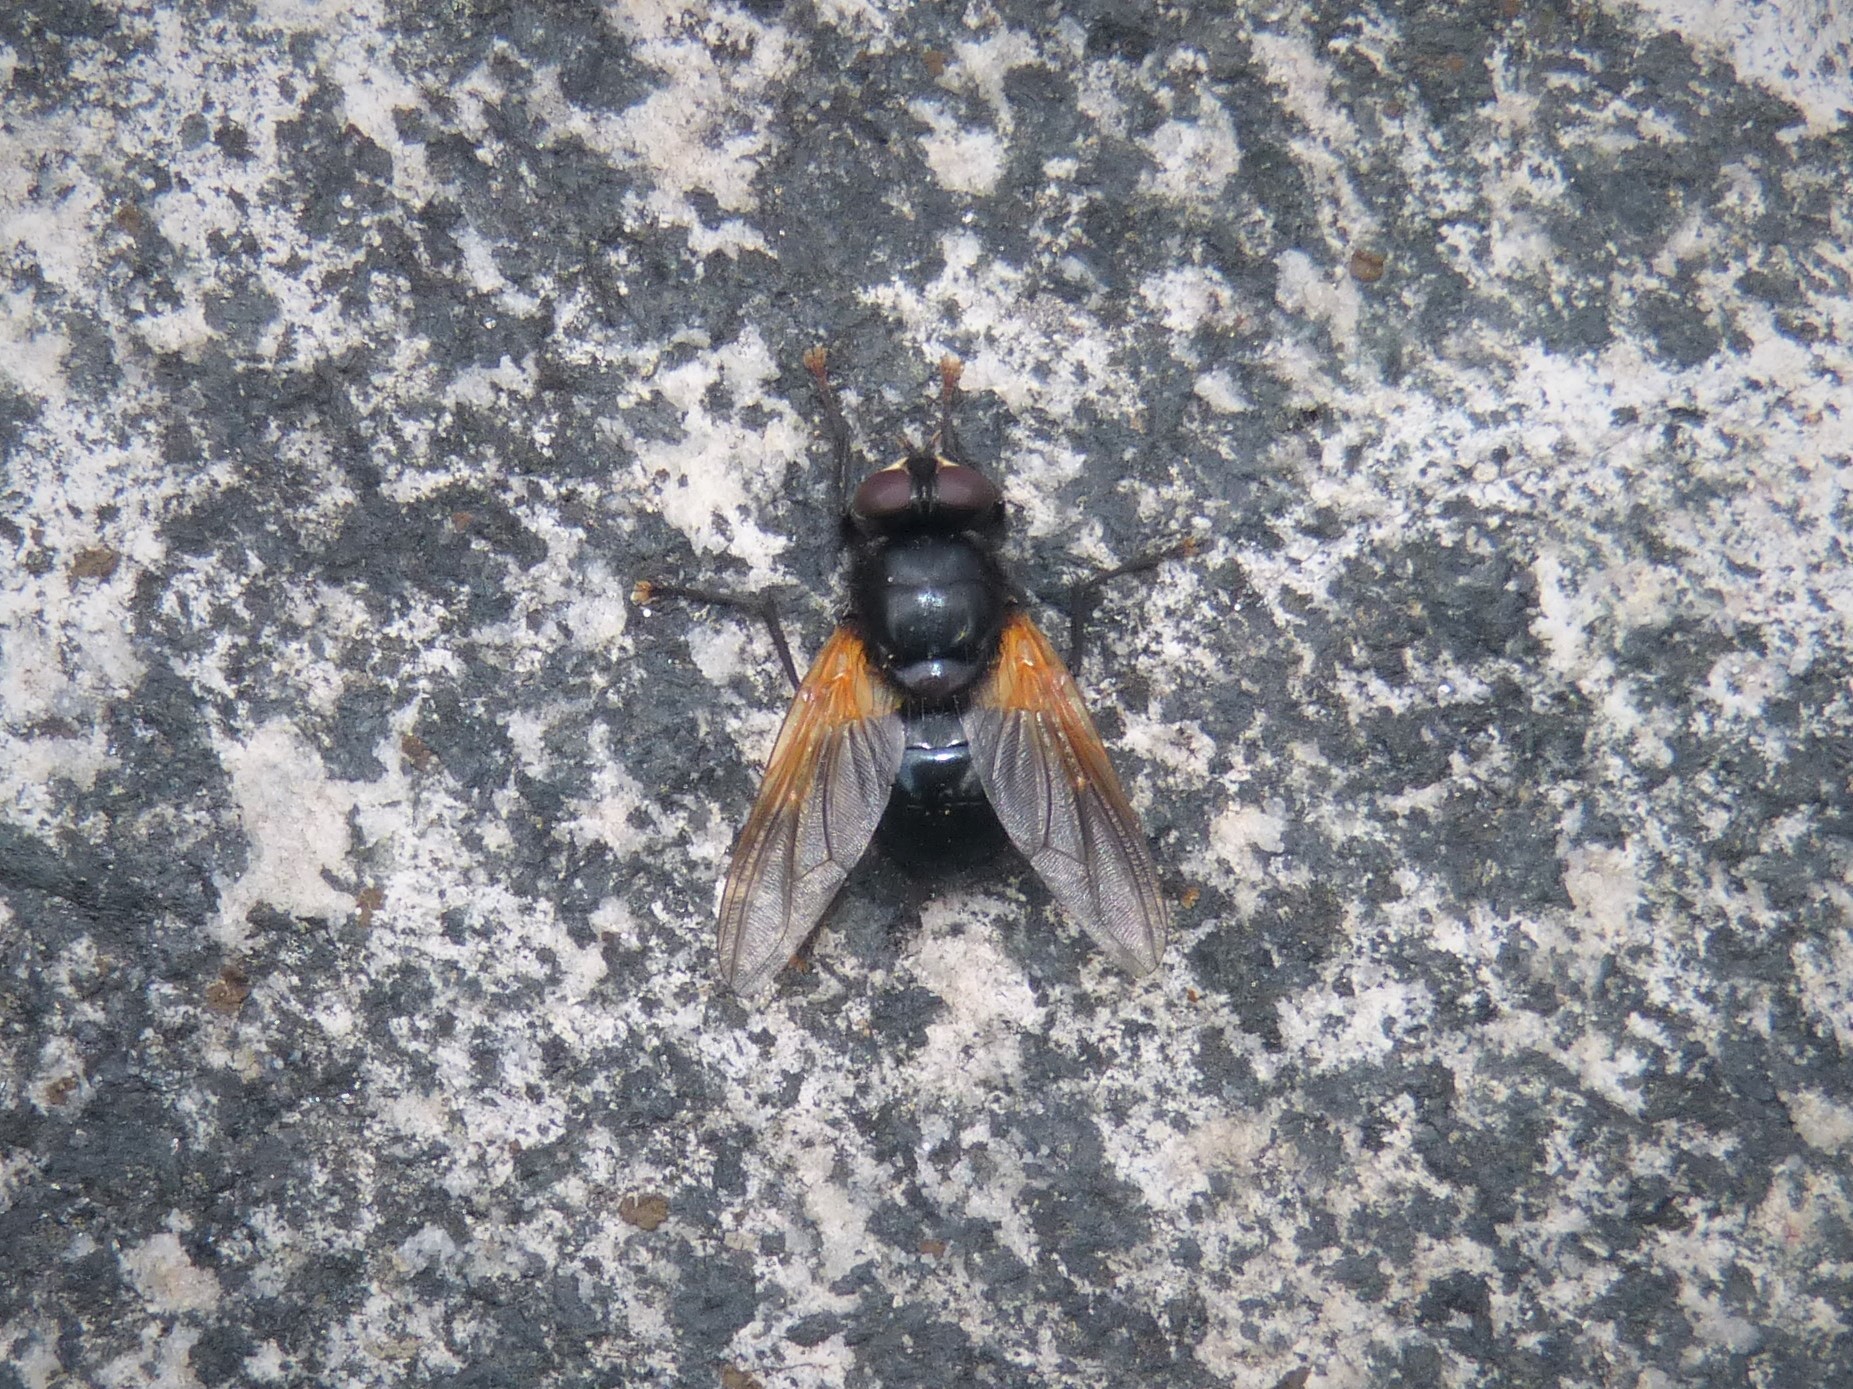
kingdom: Animalia
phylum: Arthropoda
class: Insecta
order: Diptera
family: Muscidae
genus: Mesembrina
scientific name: Mesembrina meridiana
